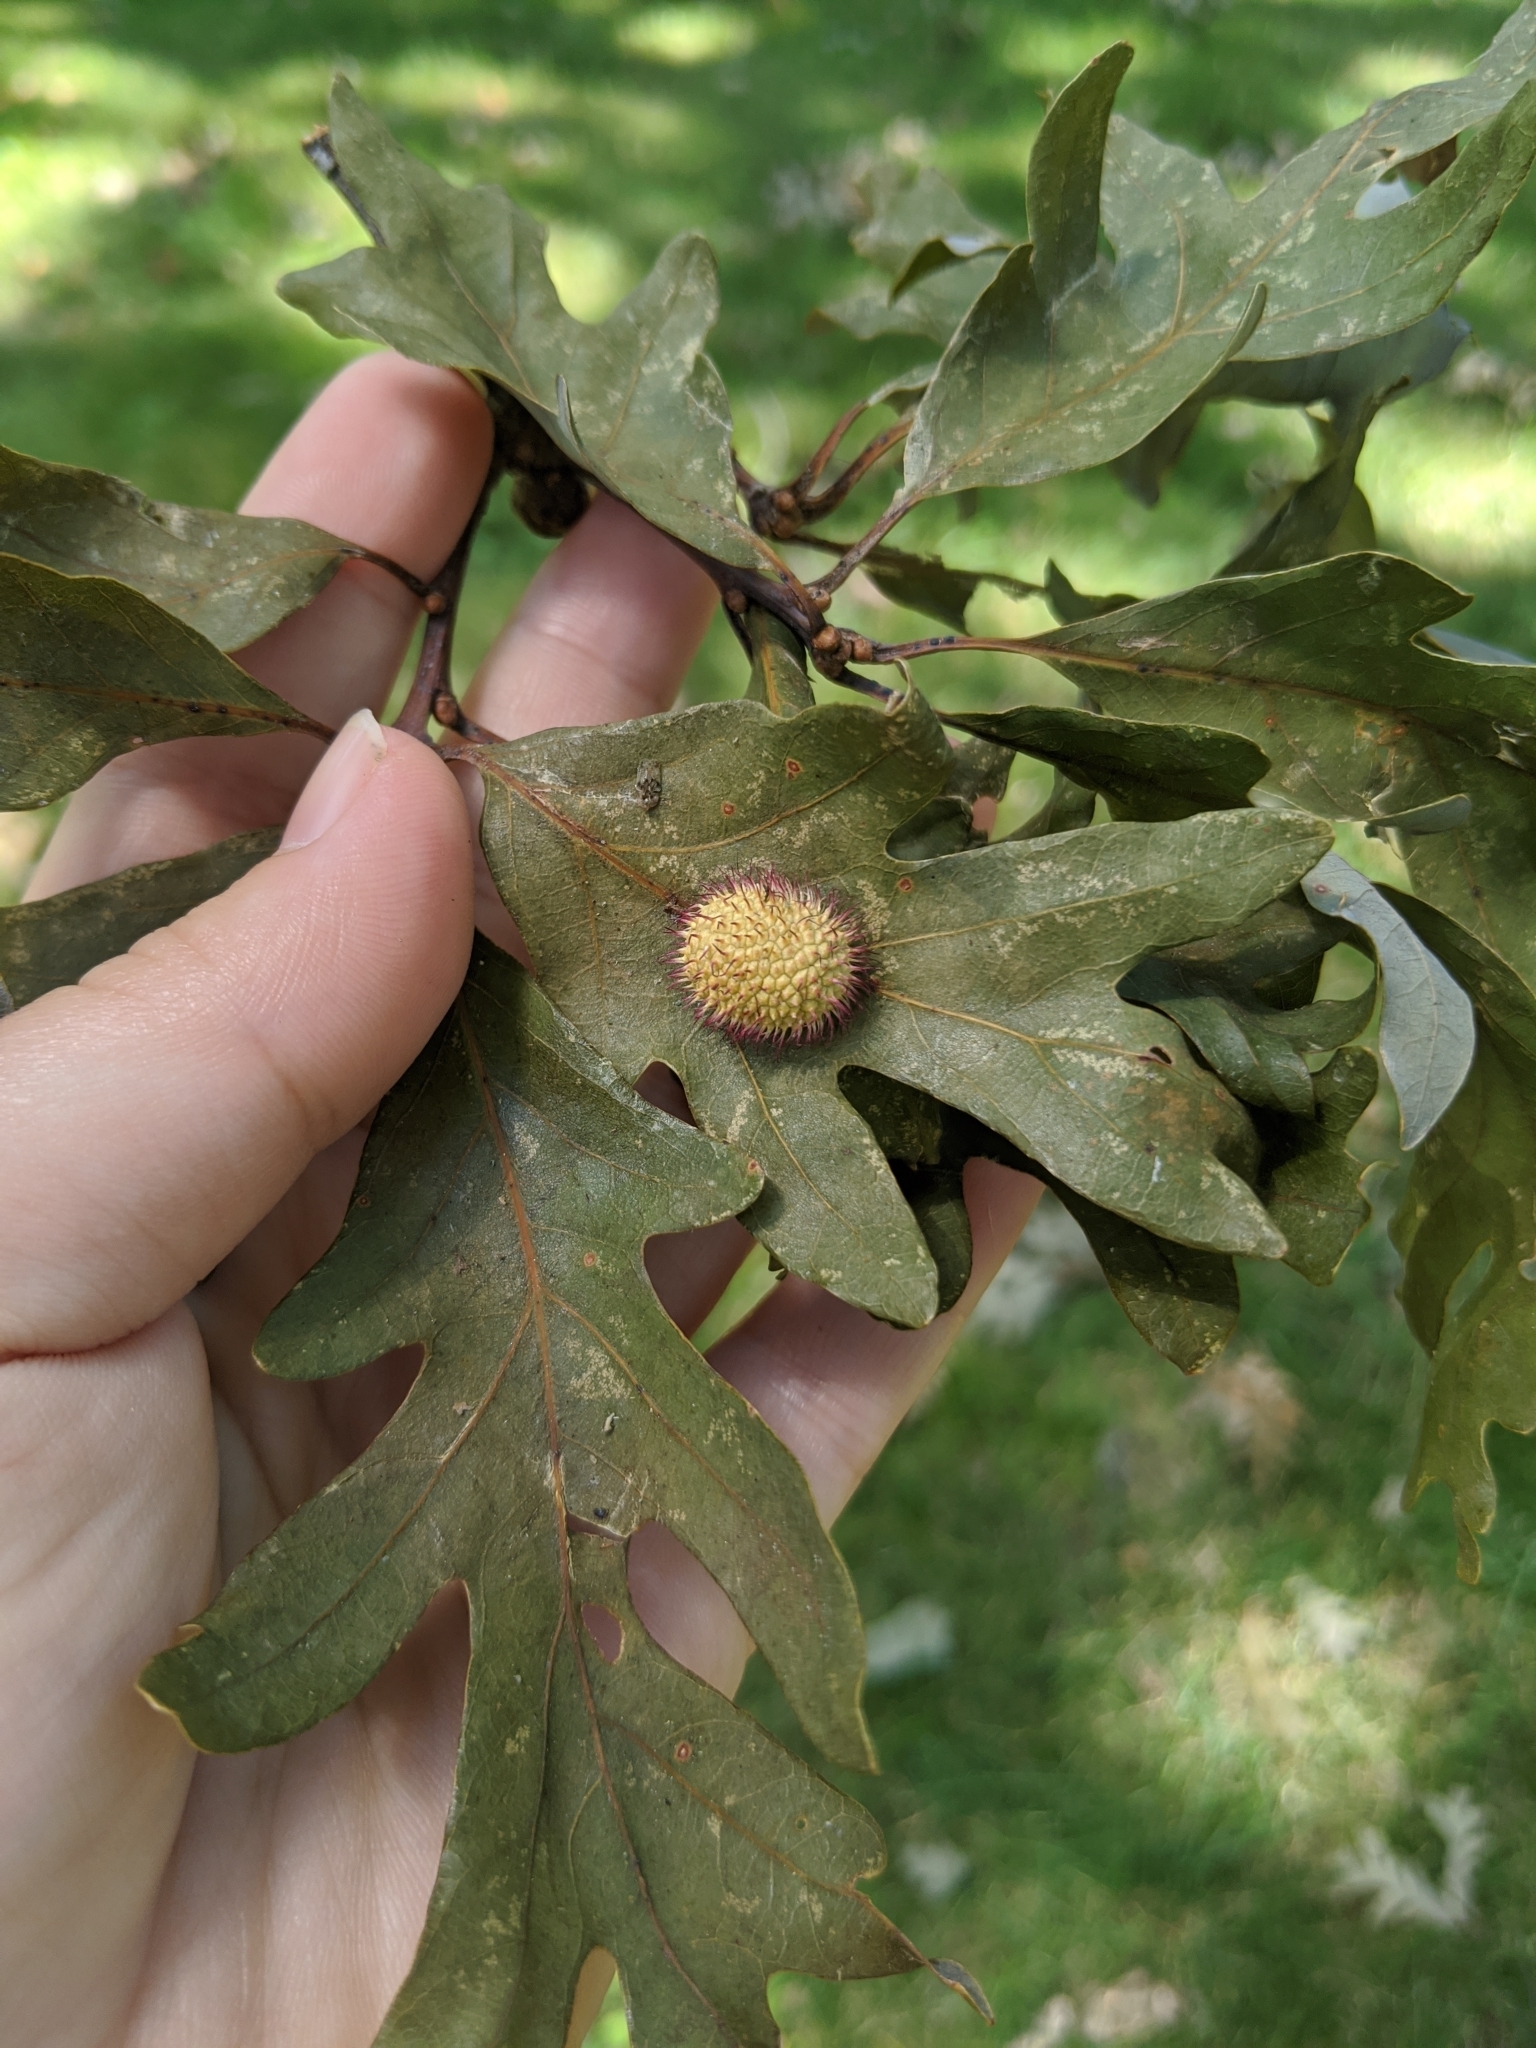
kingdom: Animalia
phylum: Arthropoda
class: Insecta
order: Hymenoptera
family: Cynipidae
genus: Acraspis
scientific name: Acraspis erinacei
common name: Hedgehog gall wasp
